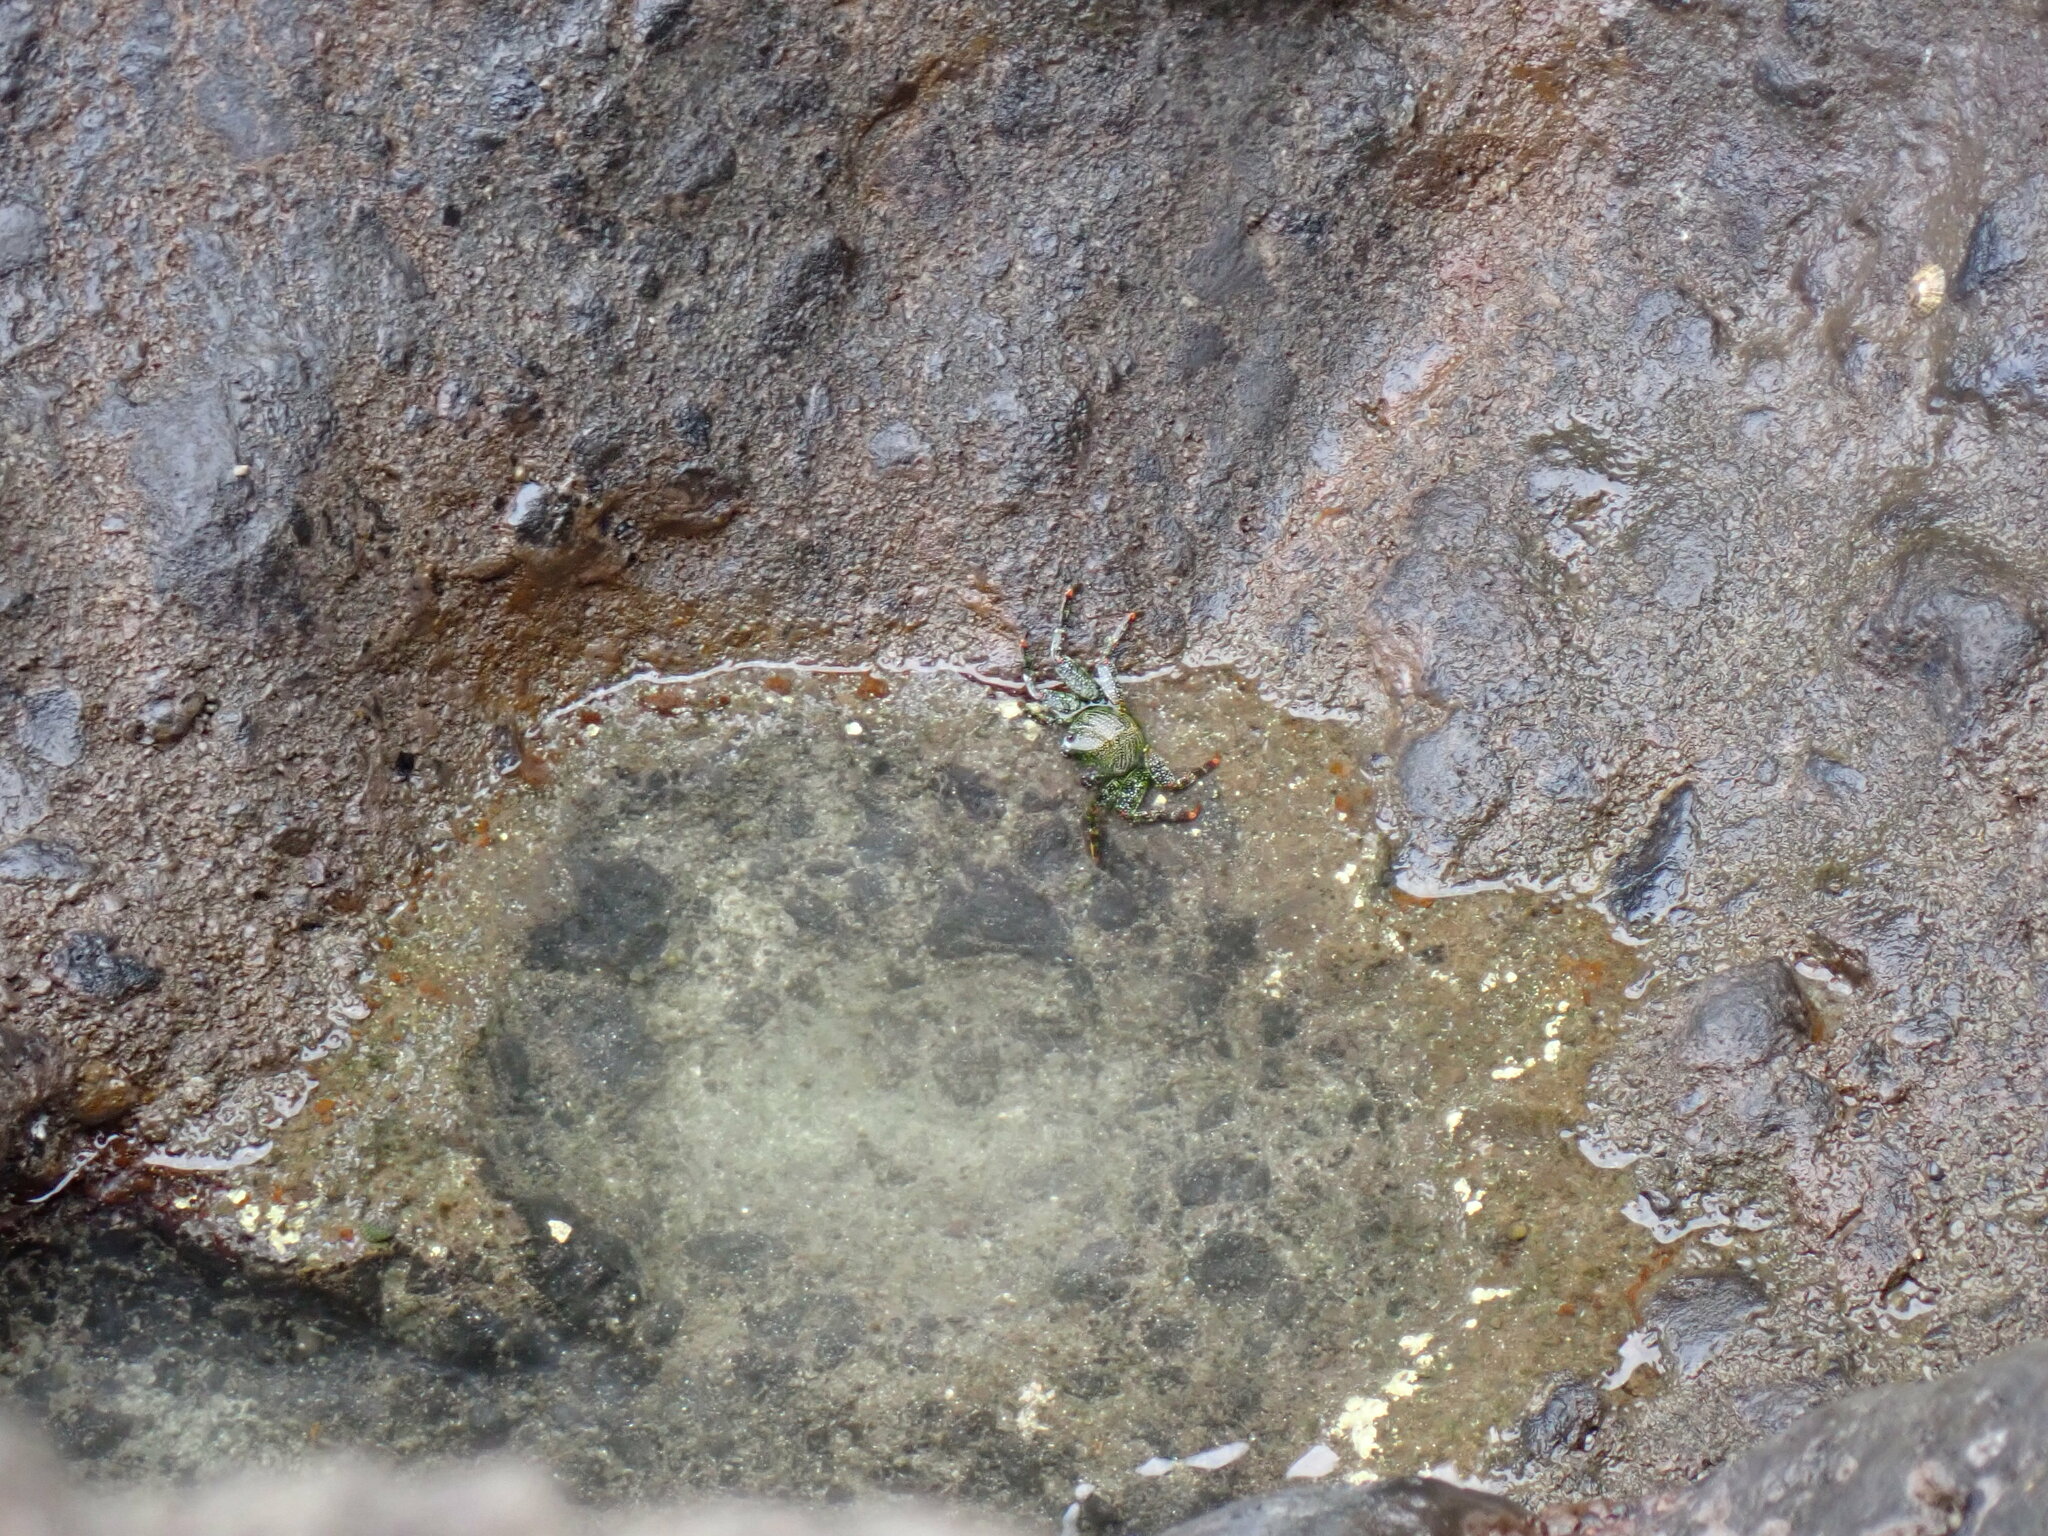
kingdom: Animalia
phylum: Arthropoda
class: Malacostraca
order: Decapoda
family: Grapsidae
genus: Grapsus
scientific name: Grapsus adscensionis
